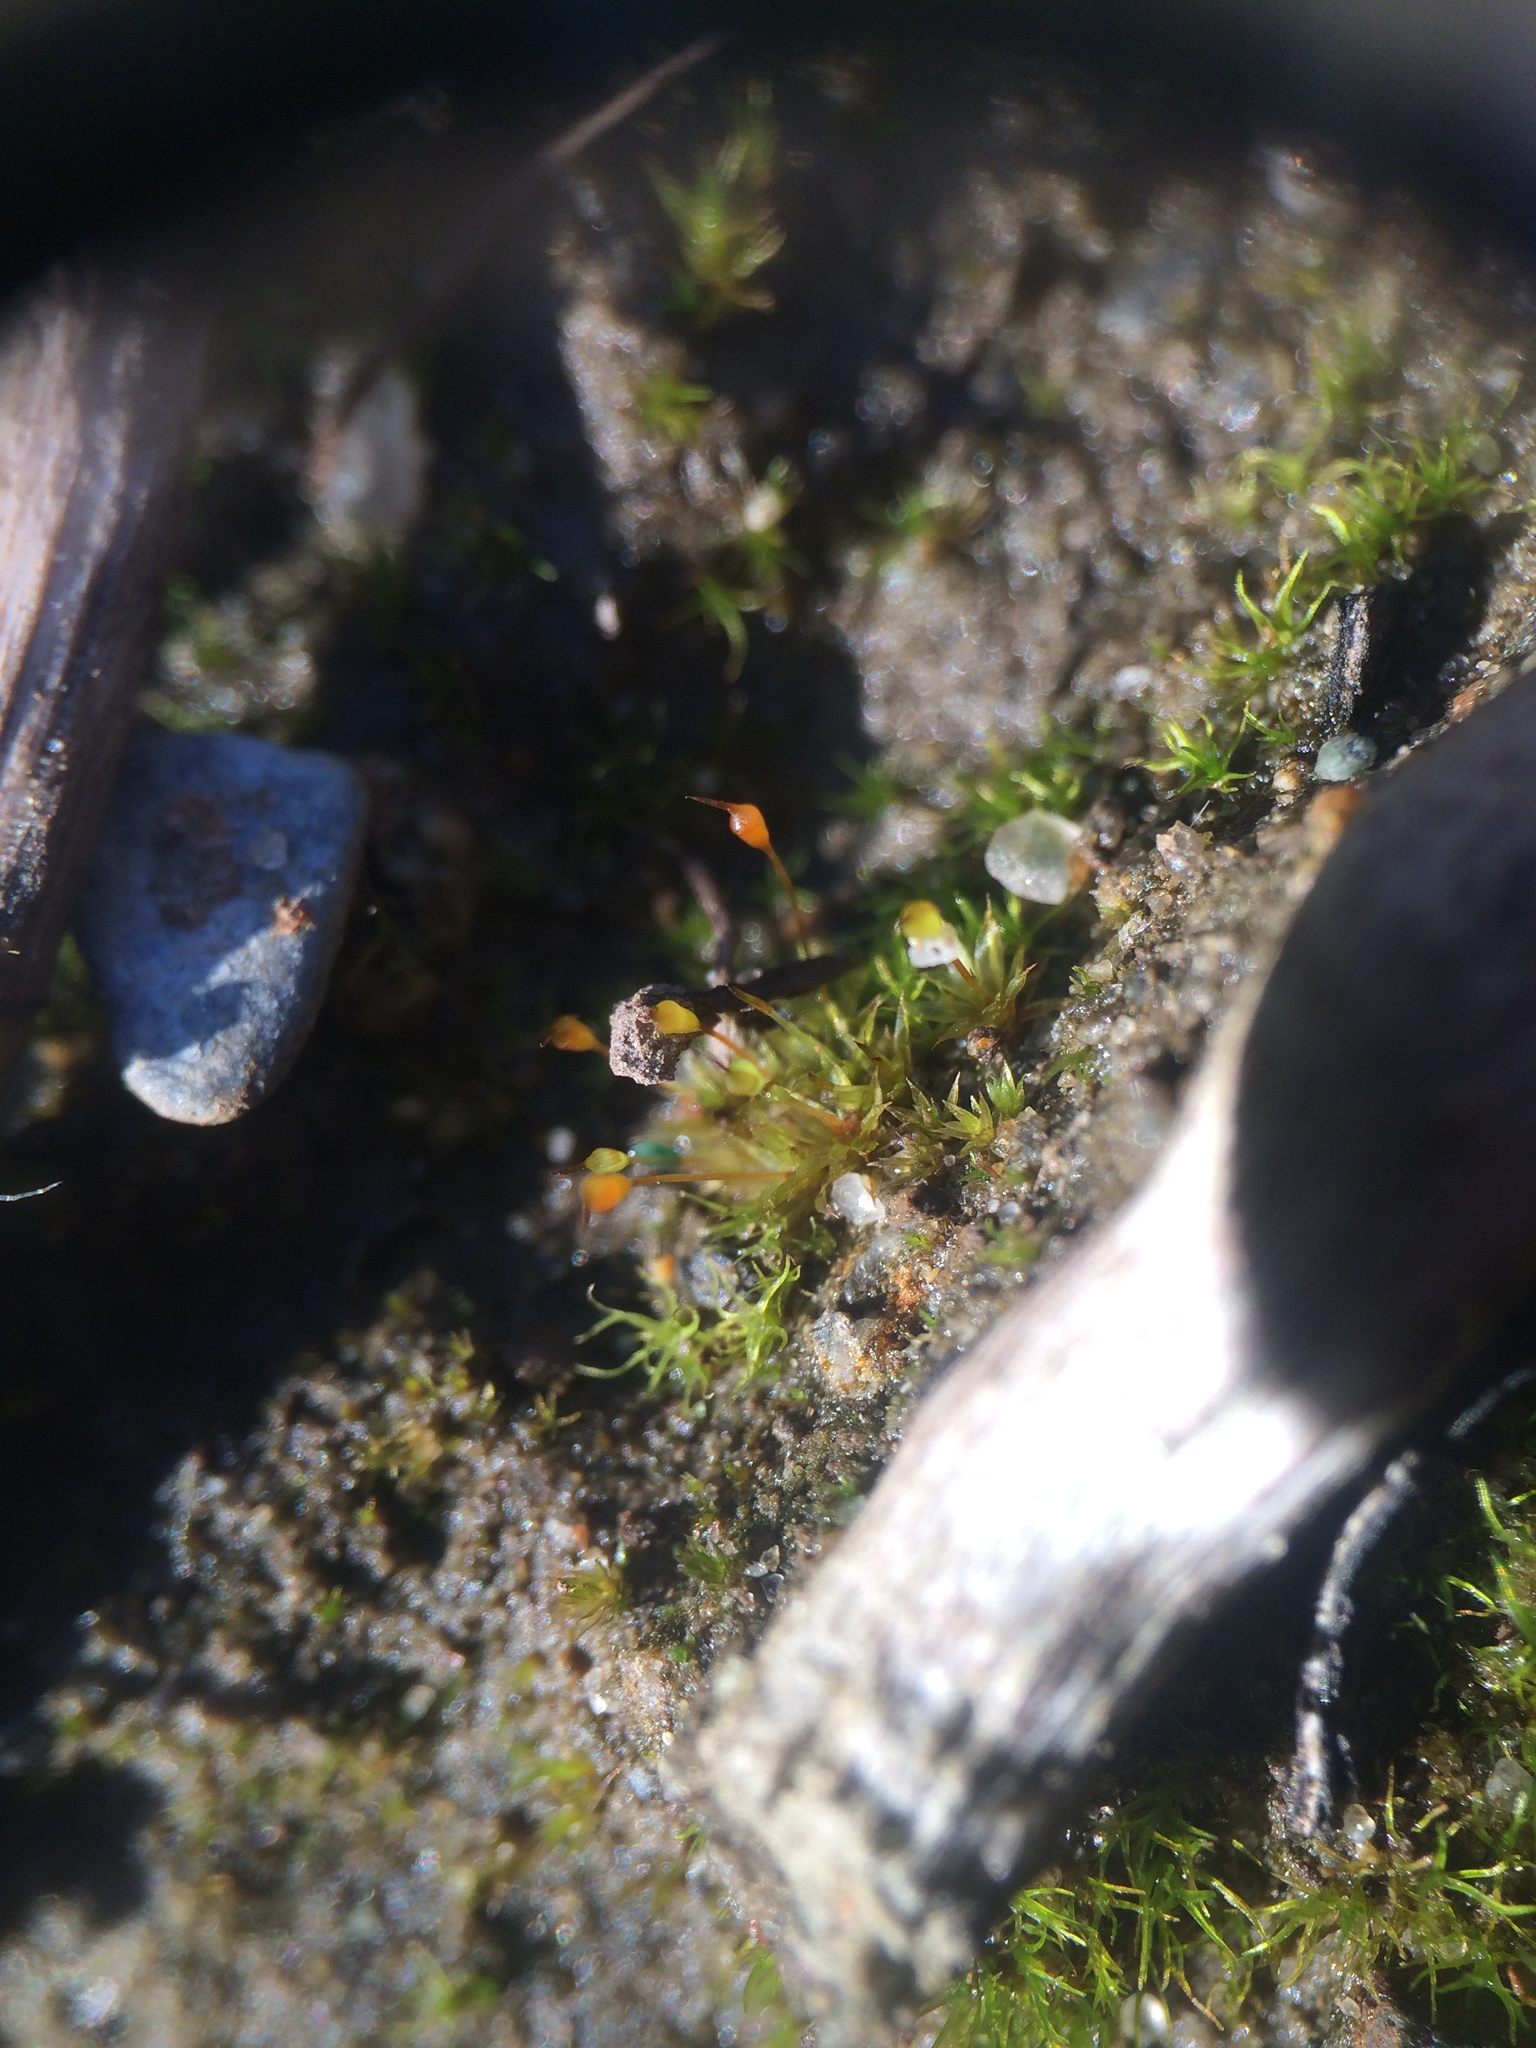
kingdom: Plantae
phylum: Bryophyta
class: Bryopsida
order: Pottiales
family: Pottiaceae
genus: Tortula
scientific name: Tortula truncata
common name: Truncated screw moss
